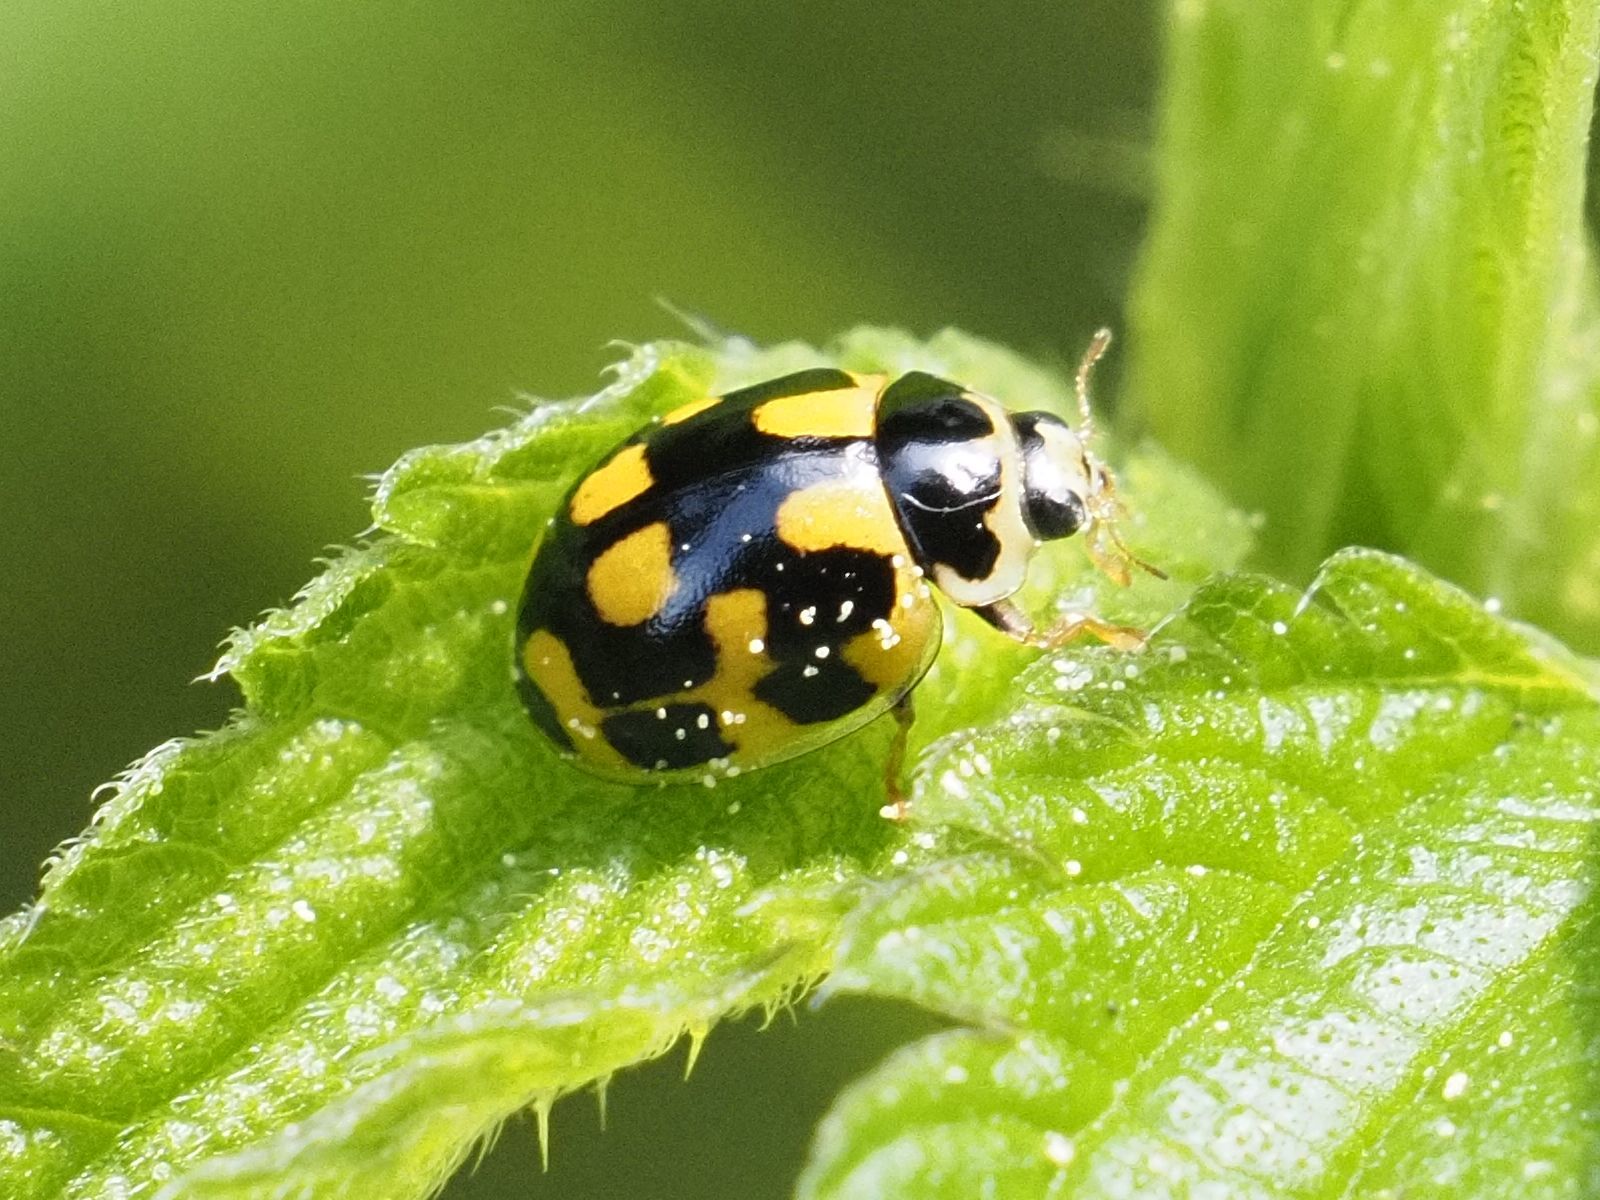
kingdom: Animalia
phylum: Arthropoda
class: Insecta
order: Coleoptera
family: Coccinellidae
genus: Propylaea
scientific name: Propylaea quatuordecimpunctata
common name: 14-spotted ladybird beetle
